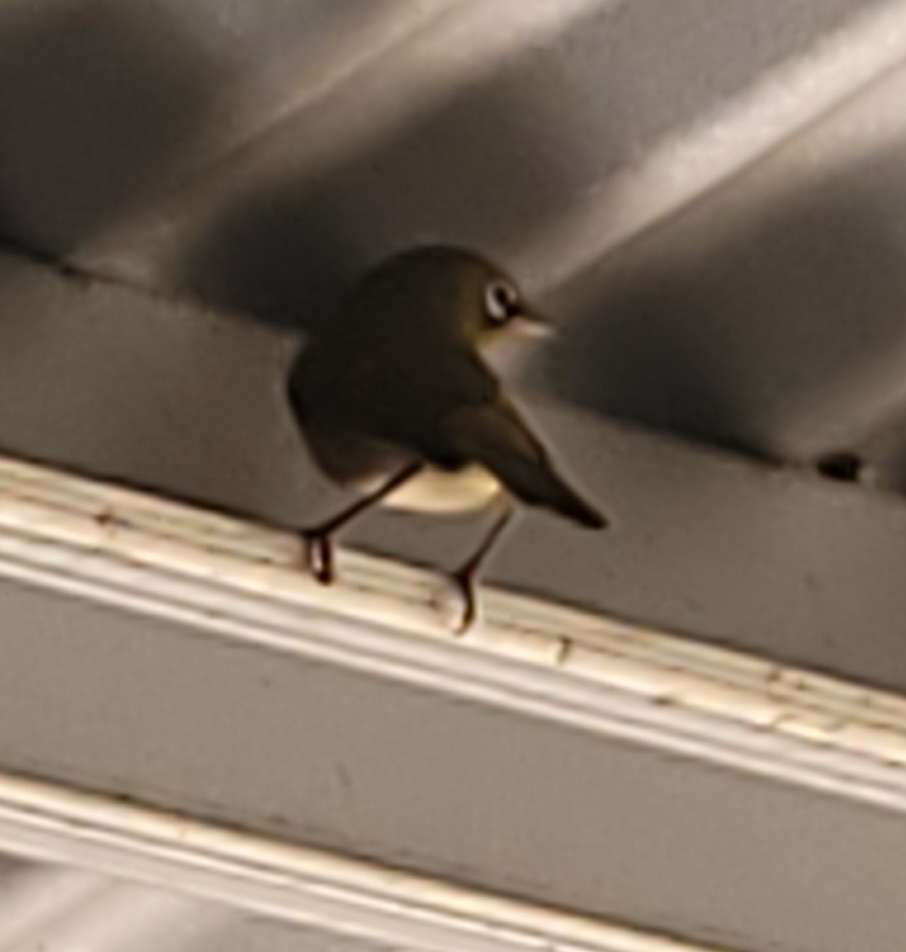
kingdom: Animalia
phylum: Chordata
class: Aves
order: Passeriformes
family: Zosteropidae
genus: Zosterops
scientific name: Zosterops lateralis
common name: Silvereye
